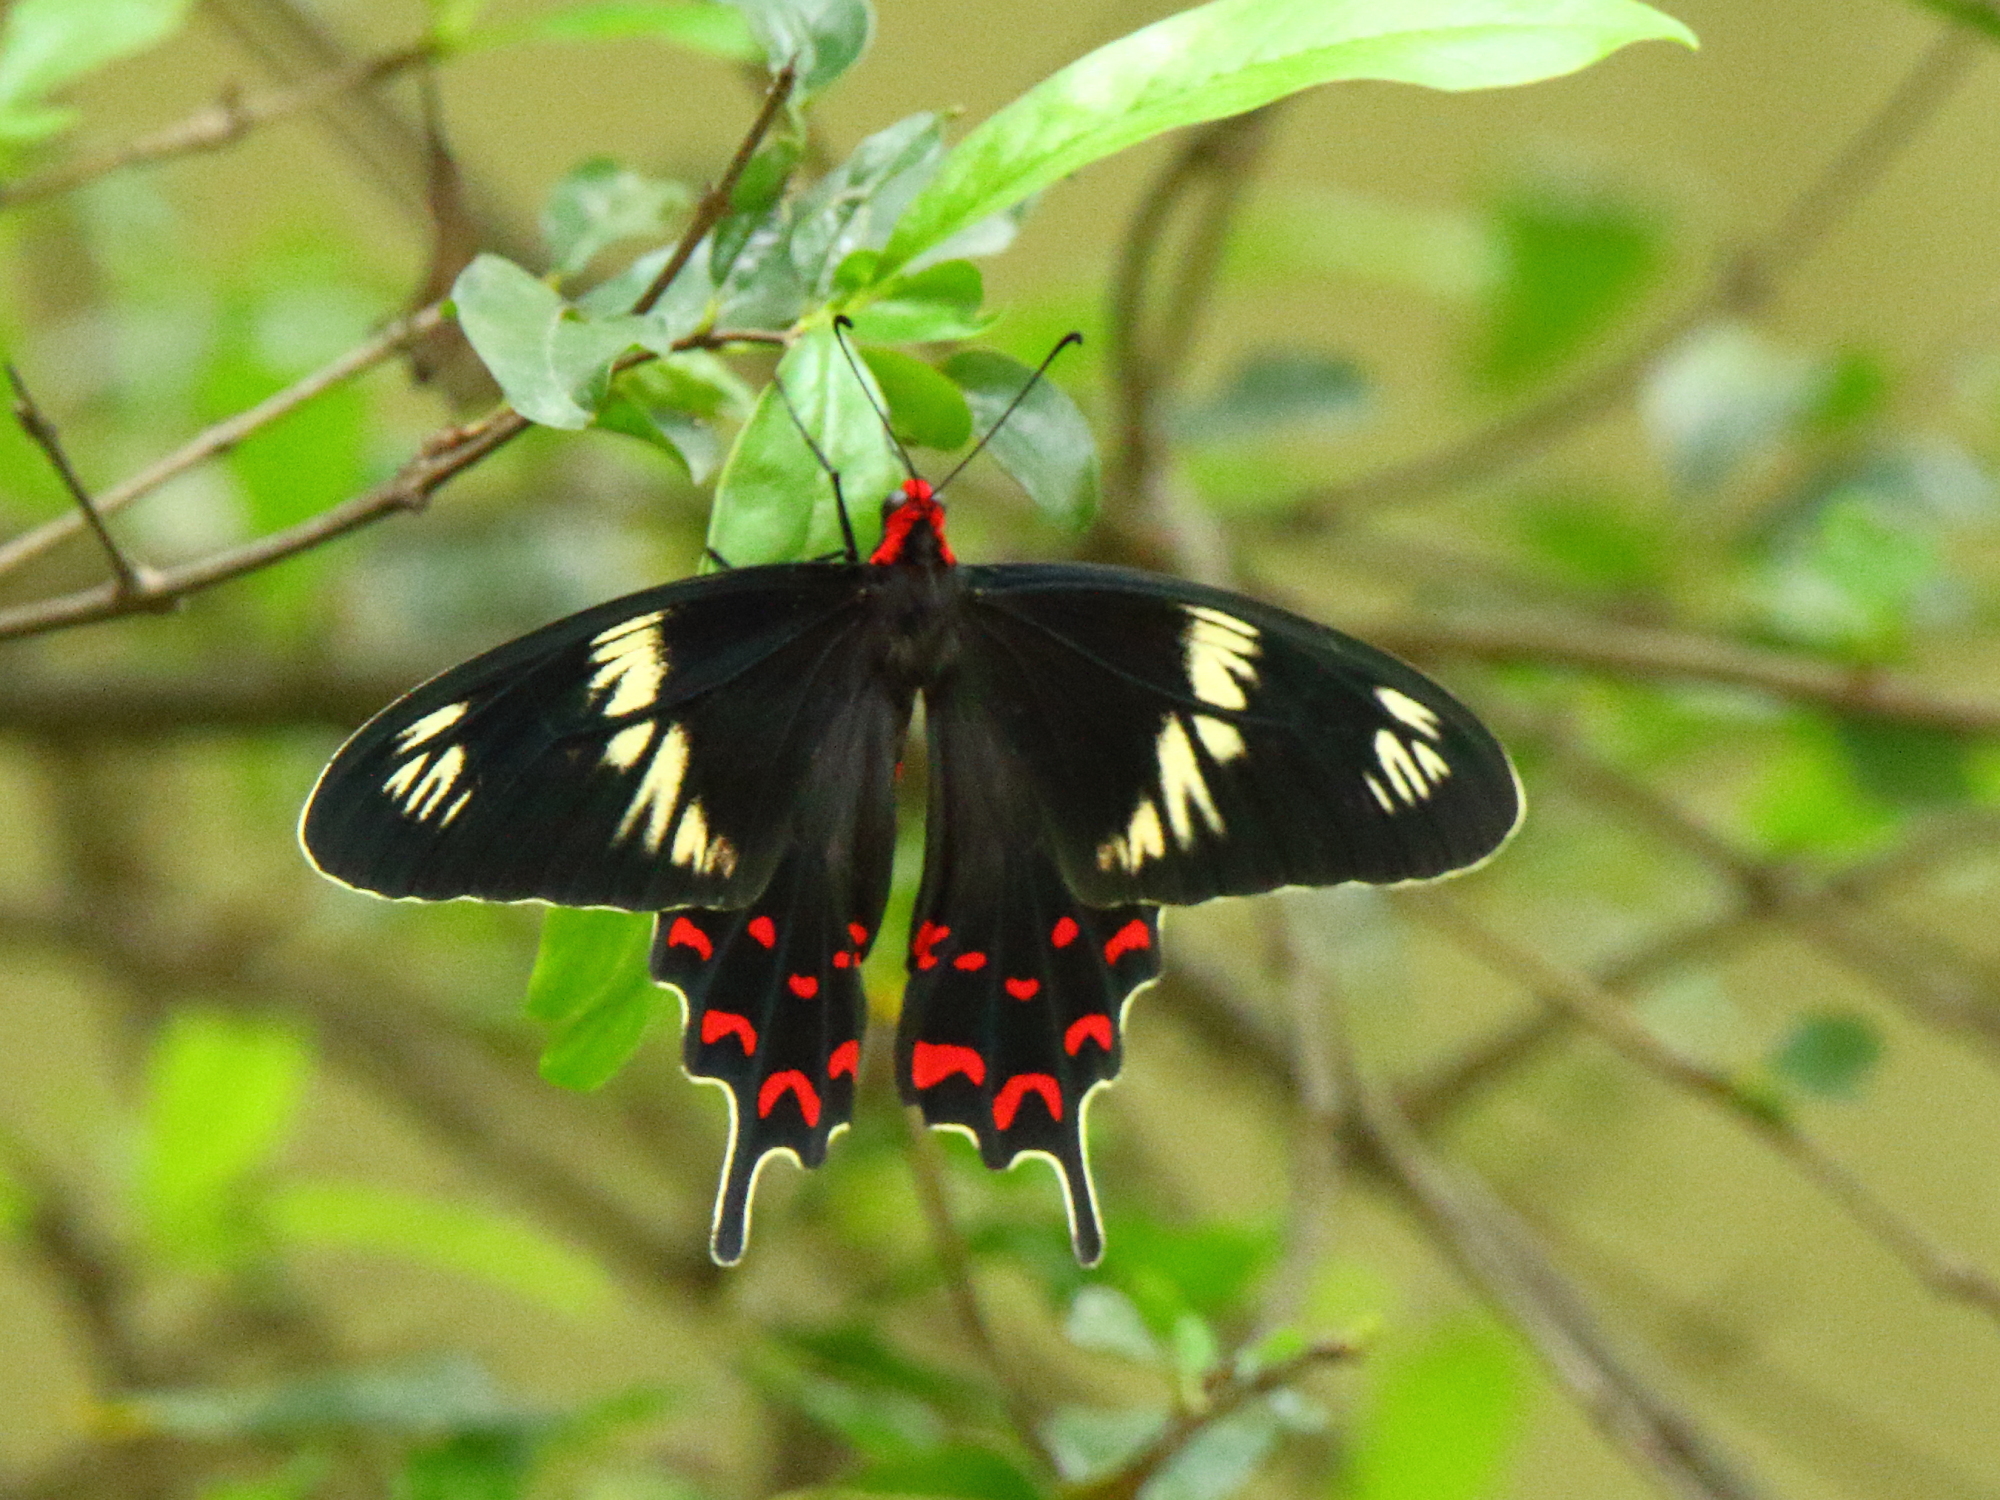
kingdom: Animalia
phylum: Arthropoda
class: Insecta
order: Lepidoptera
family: Papilionidae
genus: Pachliopta
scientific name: Pachliopta hector
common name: Crimson rose
